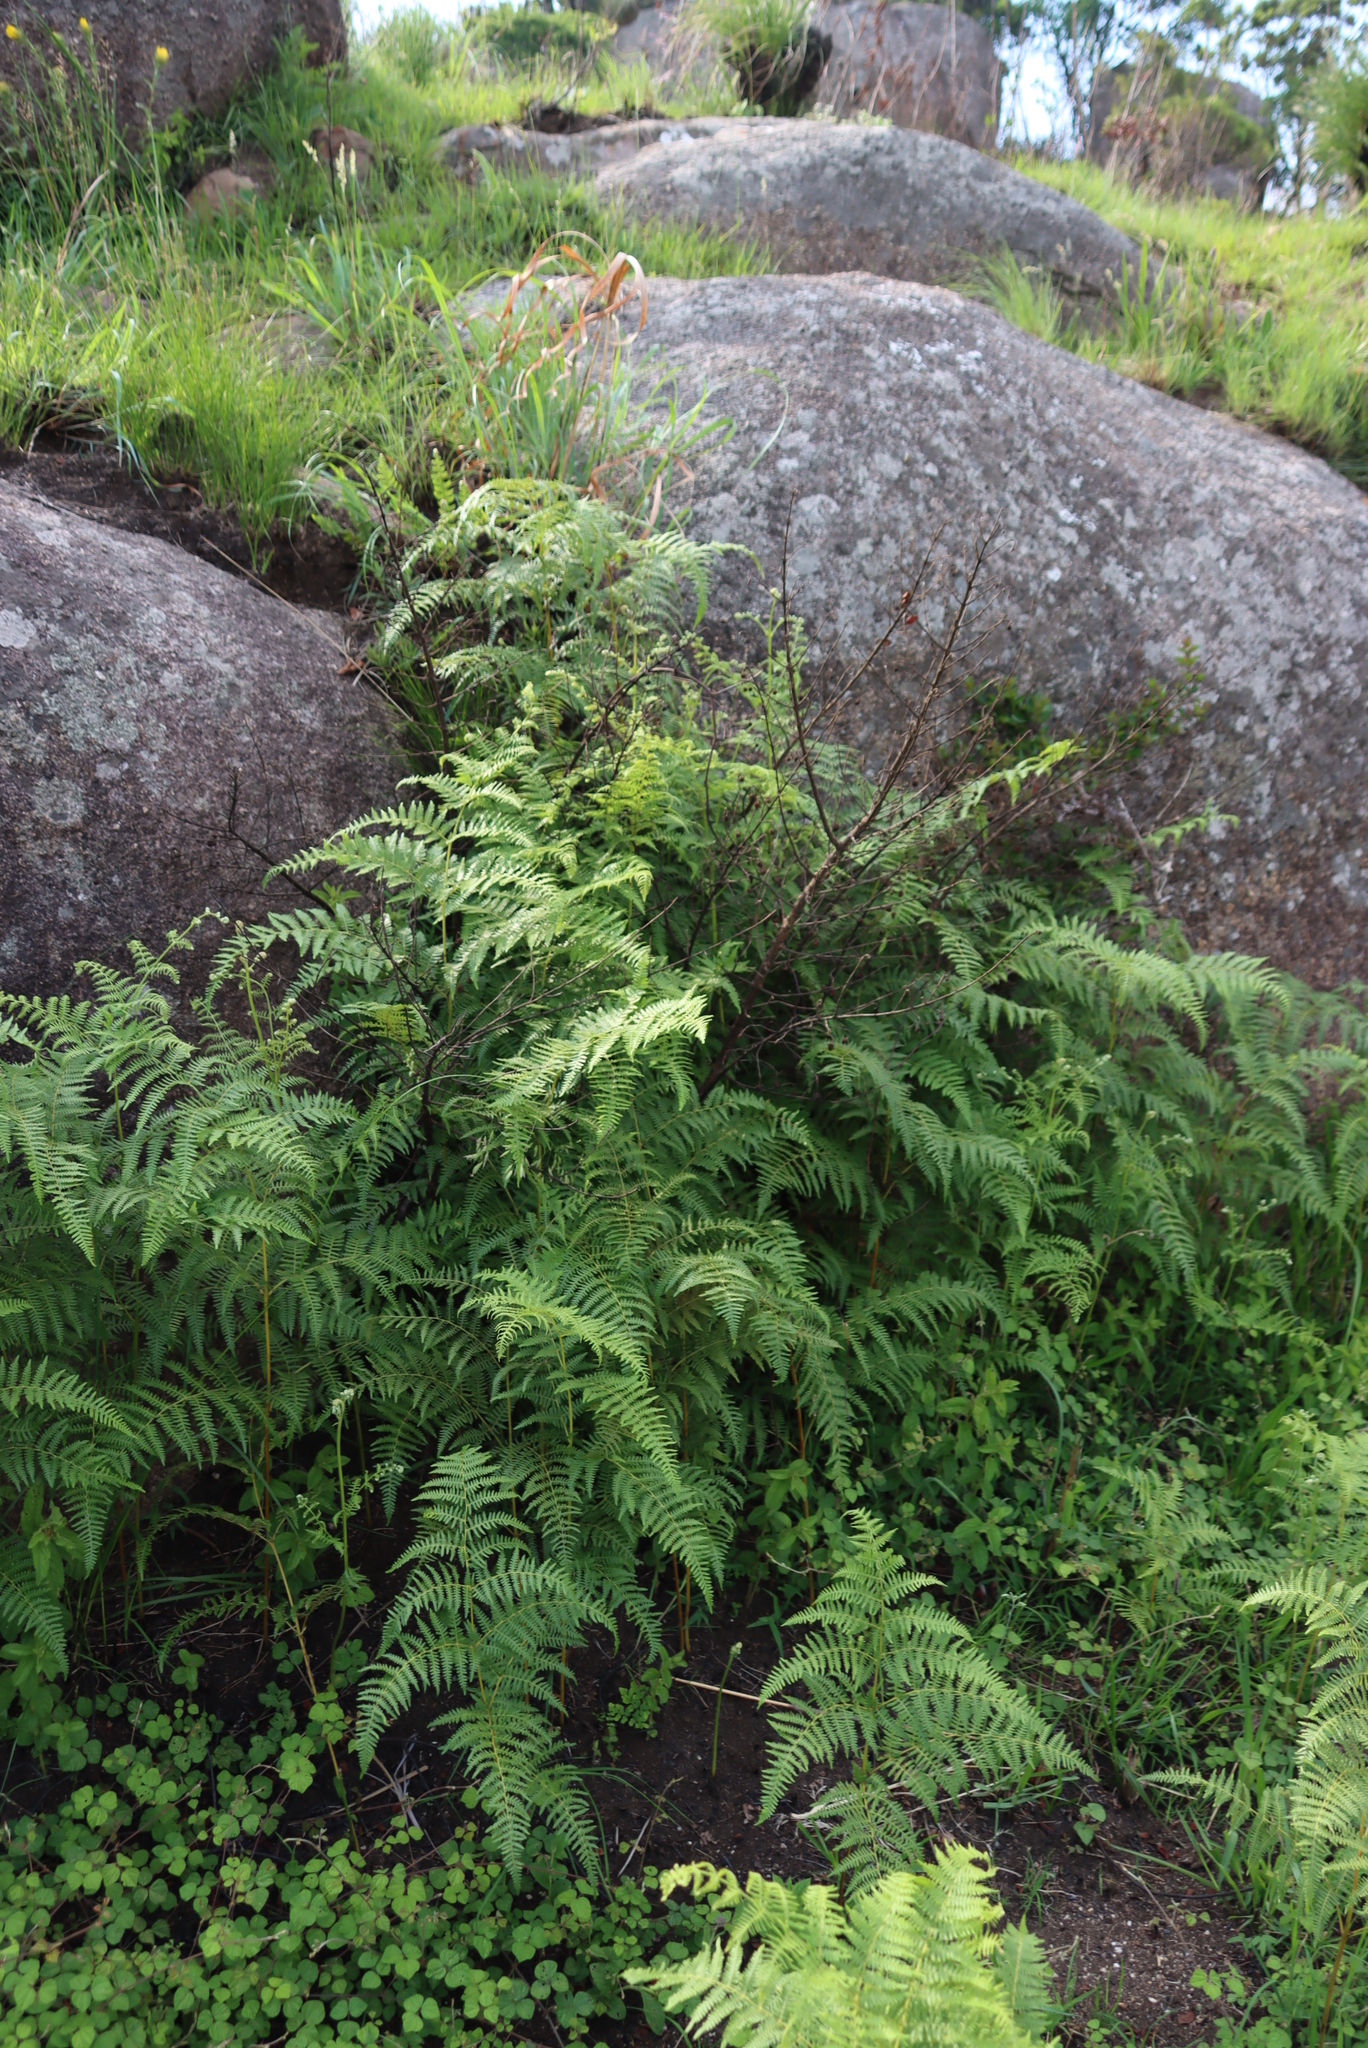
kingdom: Plantae
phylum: Tracheophyta
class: Polypodiopsida
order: Polypodiales
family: Dennstaedtiaceae
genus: Pteridium
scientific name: Pteridium aquilinum
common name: Bracken
